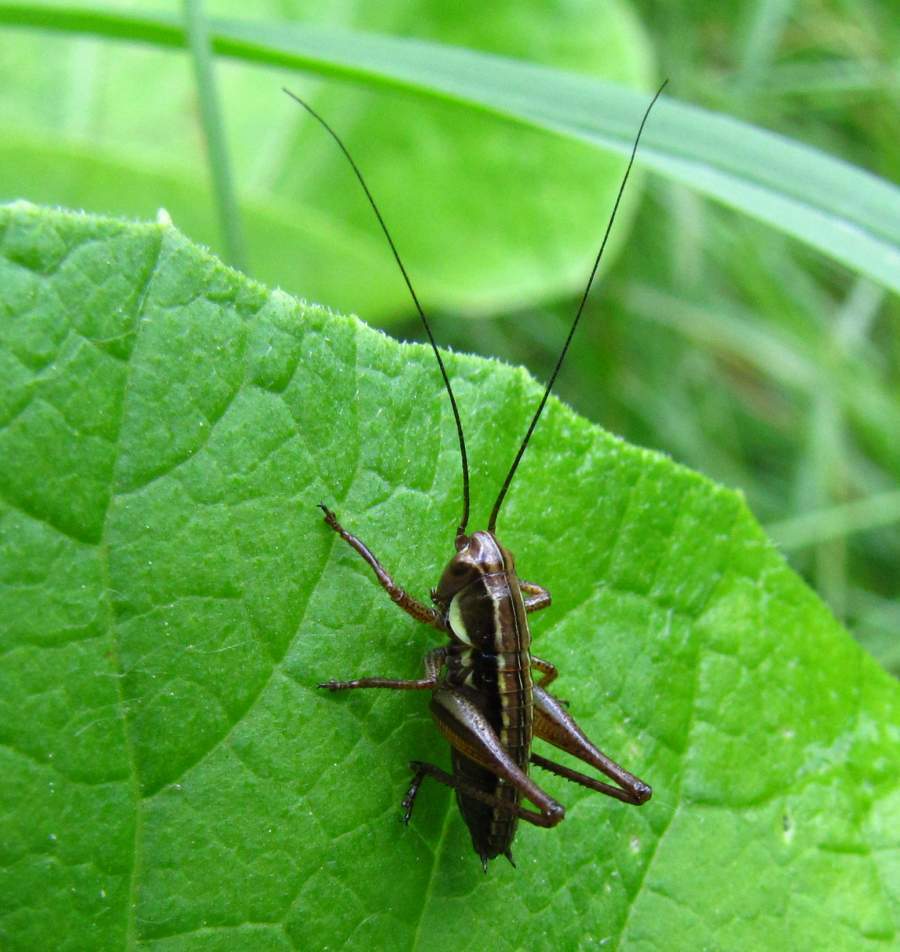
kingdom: Animalia
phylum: Arthropoda
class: Insecta
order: Orthoptera
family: Tettigoniidae
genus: Roeseliana
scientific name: Roeseliana roeselii
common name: Roesel's bush cricket
